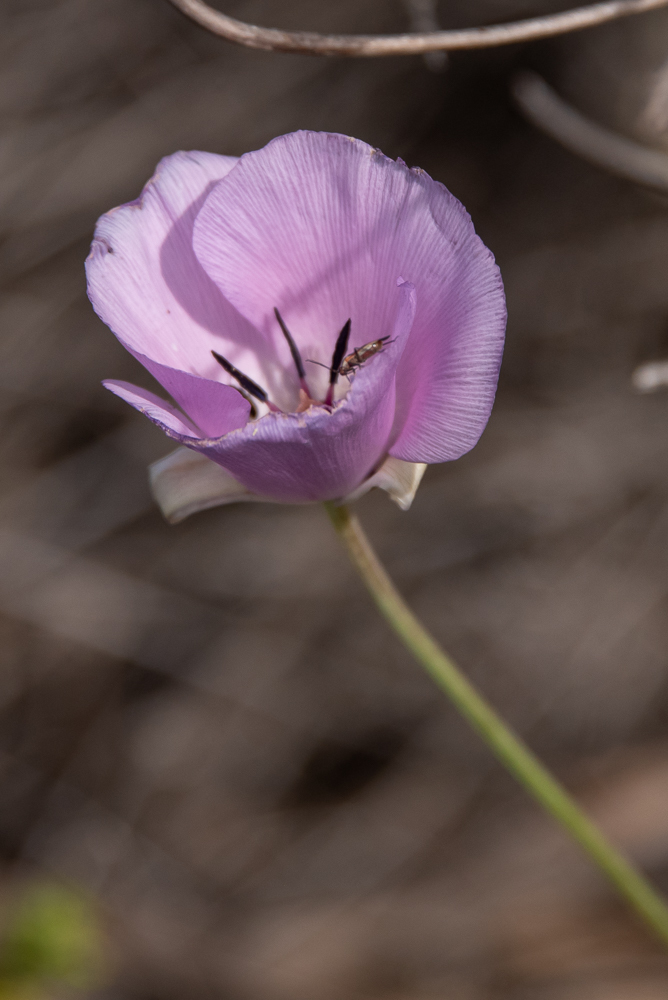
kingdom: Plantae
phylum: Tracheophyta
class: Liliopsida
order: Liliales
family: Liliaceae
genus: Calochortus
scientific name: Calochortus splendens
